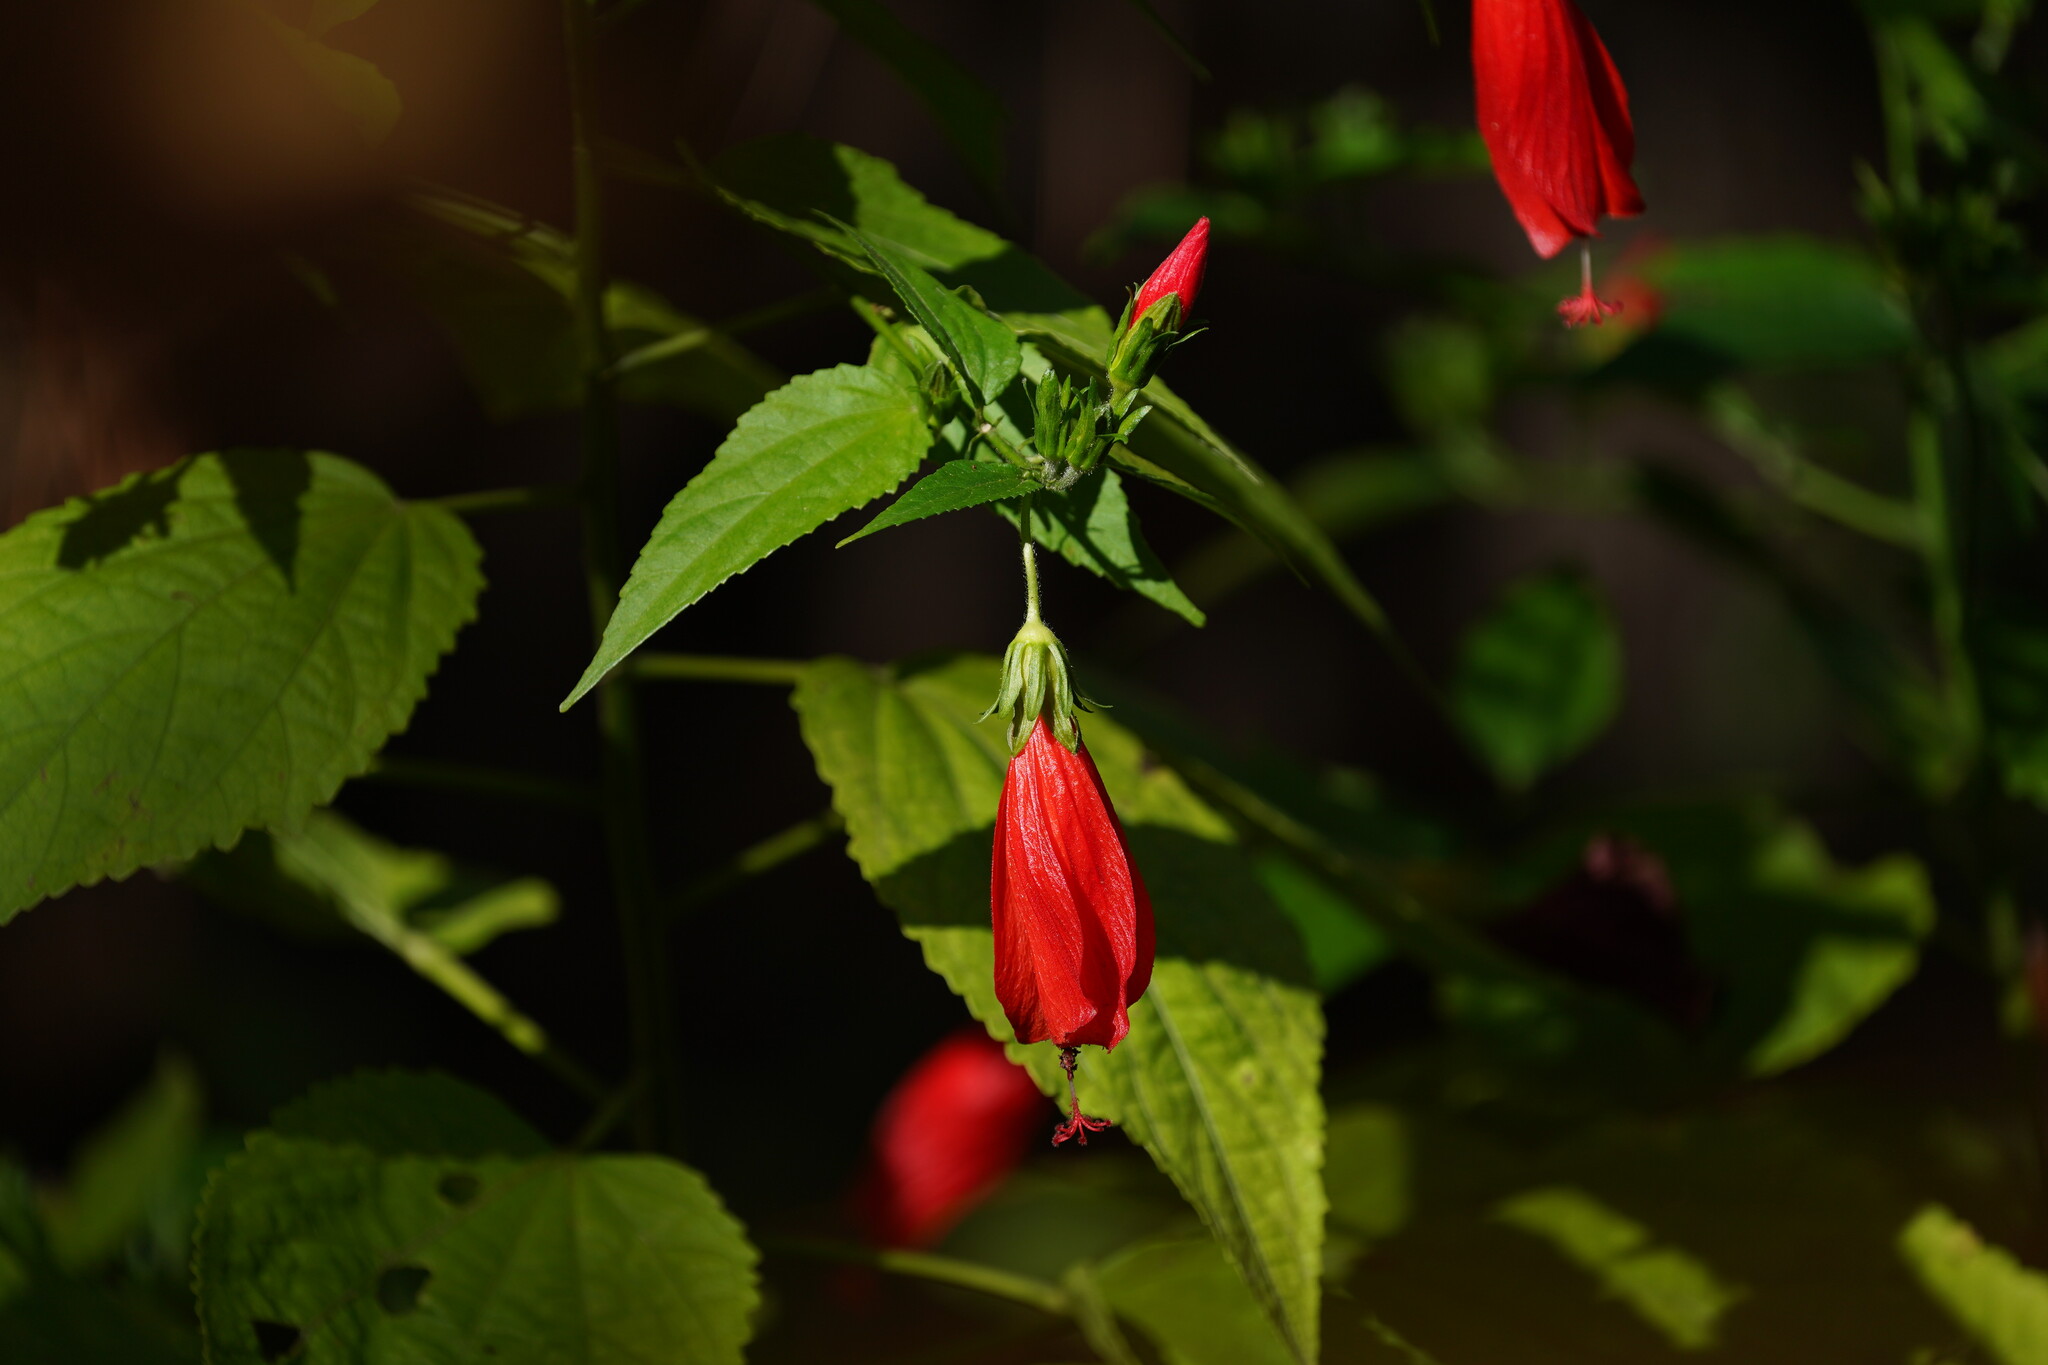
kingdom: Plantae
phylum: Tracheophyta
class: Magnoliopsida
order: Malvales
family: Malvaceae
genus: Malvaviscus
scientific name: Malvaviscus penduliflorus
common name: Mazapan
